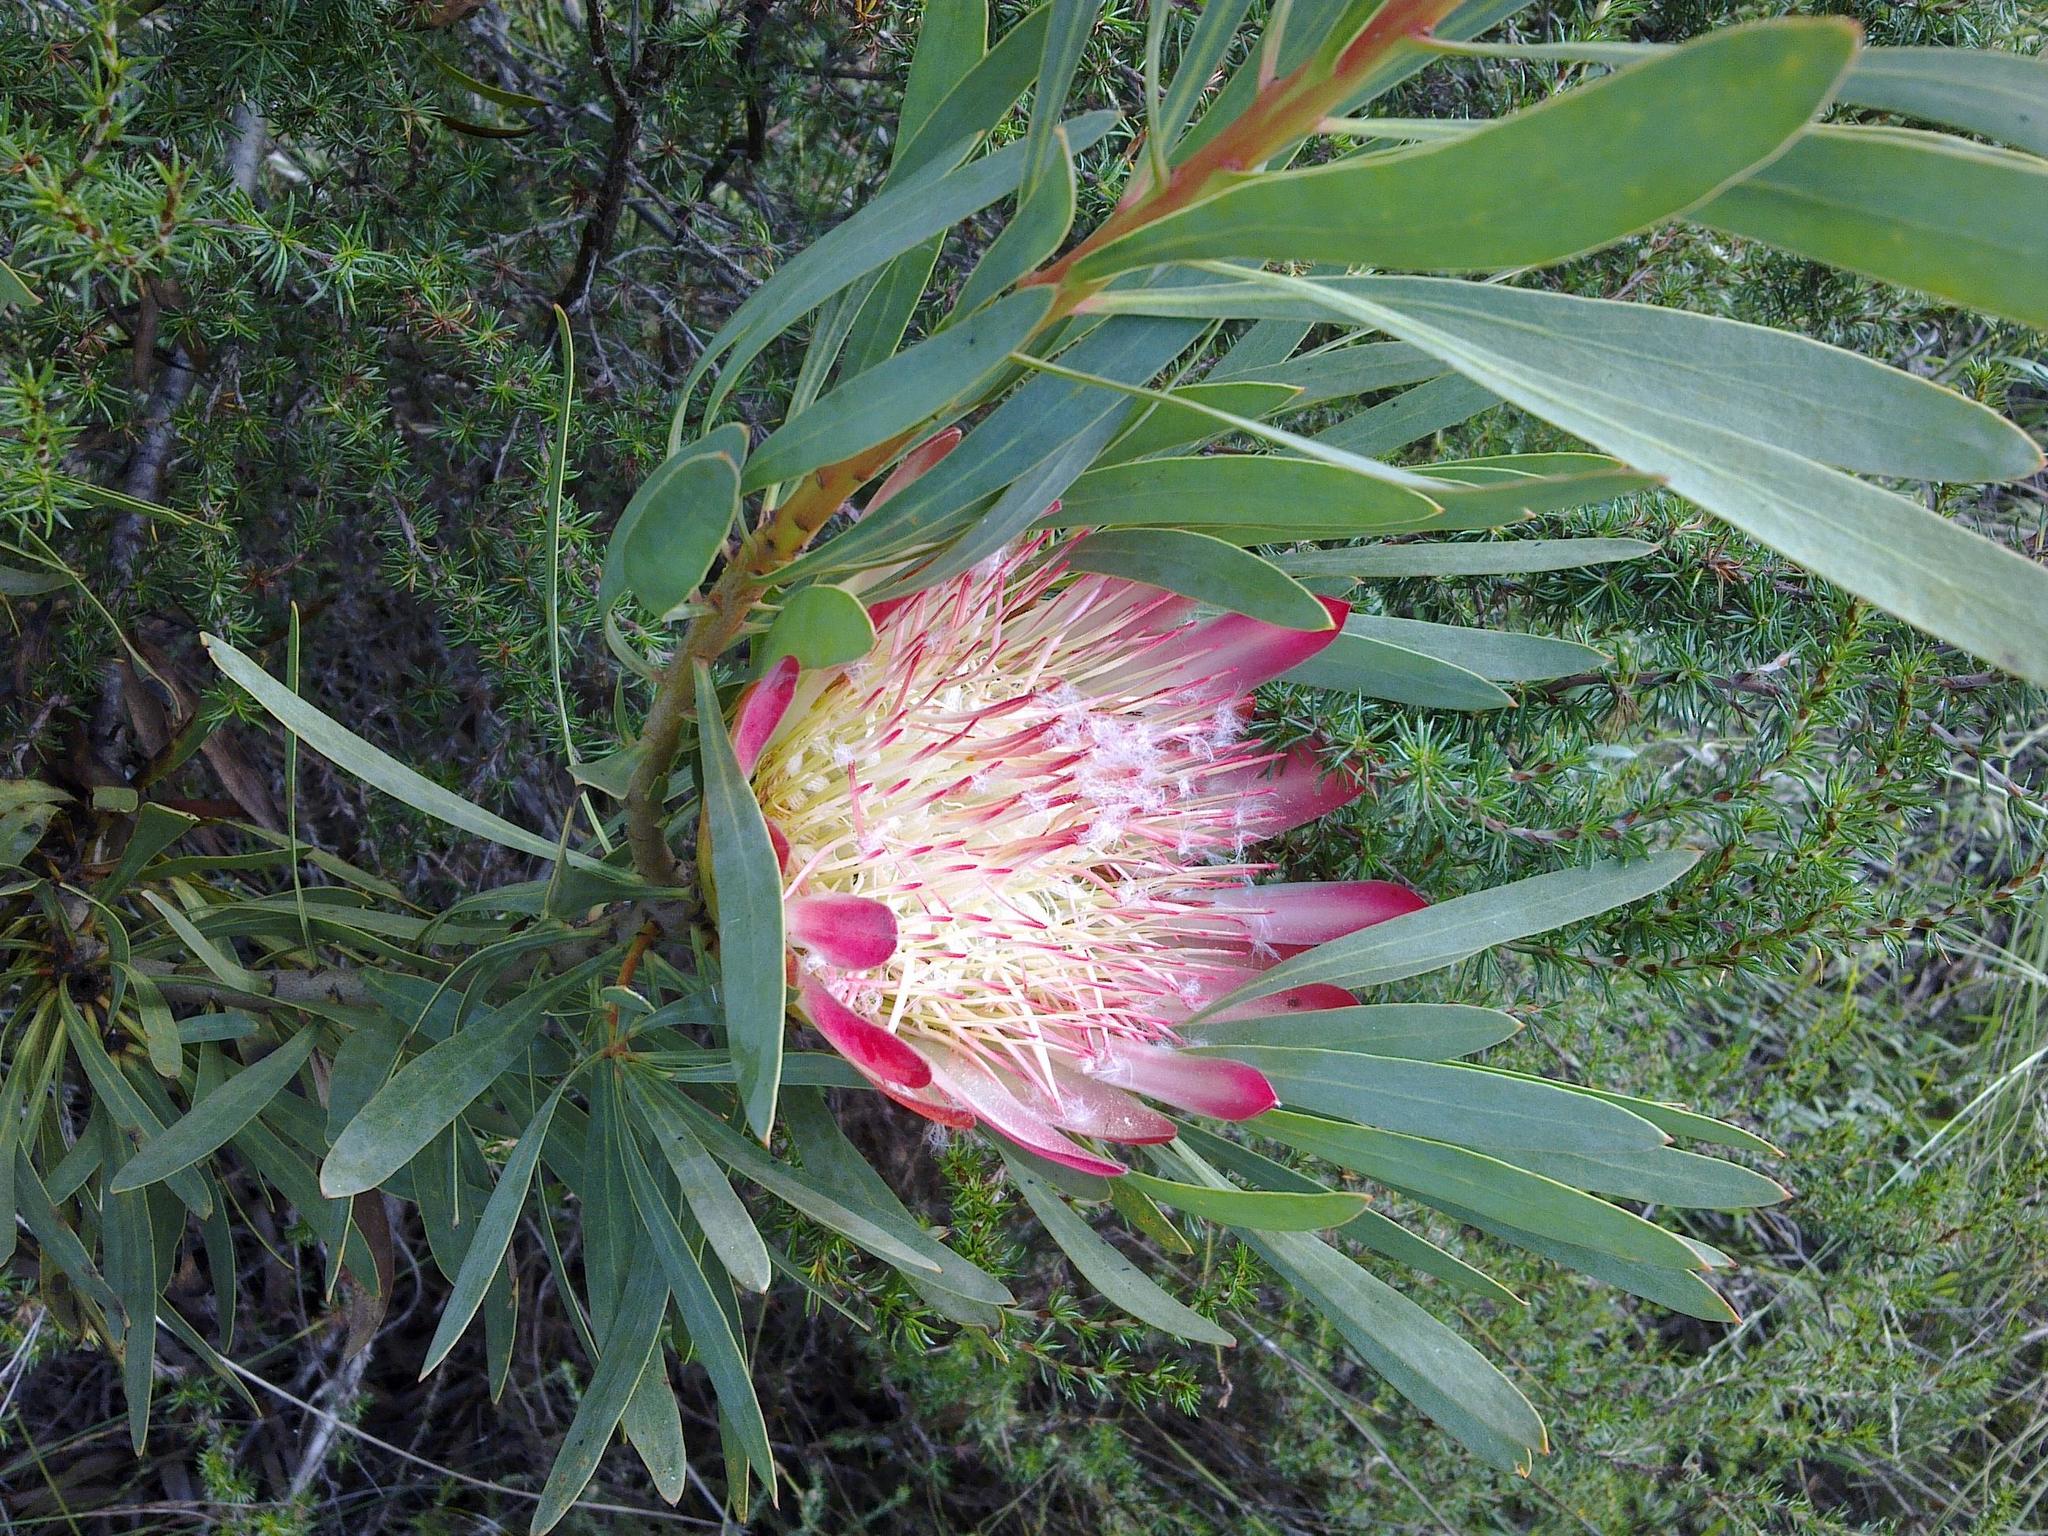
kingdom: Plantae
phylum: Tracheophyta
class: Magnoliopsida
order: Proteales
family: Proteaceae
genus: Protea
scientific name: Protea repens
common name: Sugarbush
